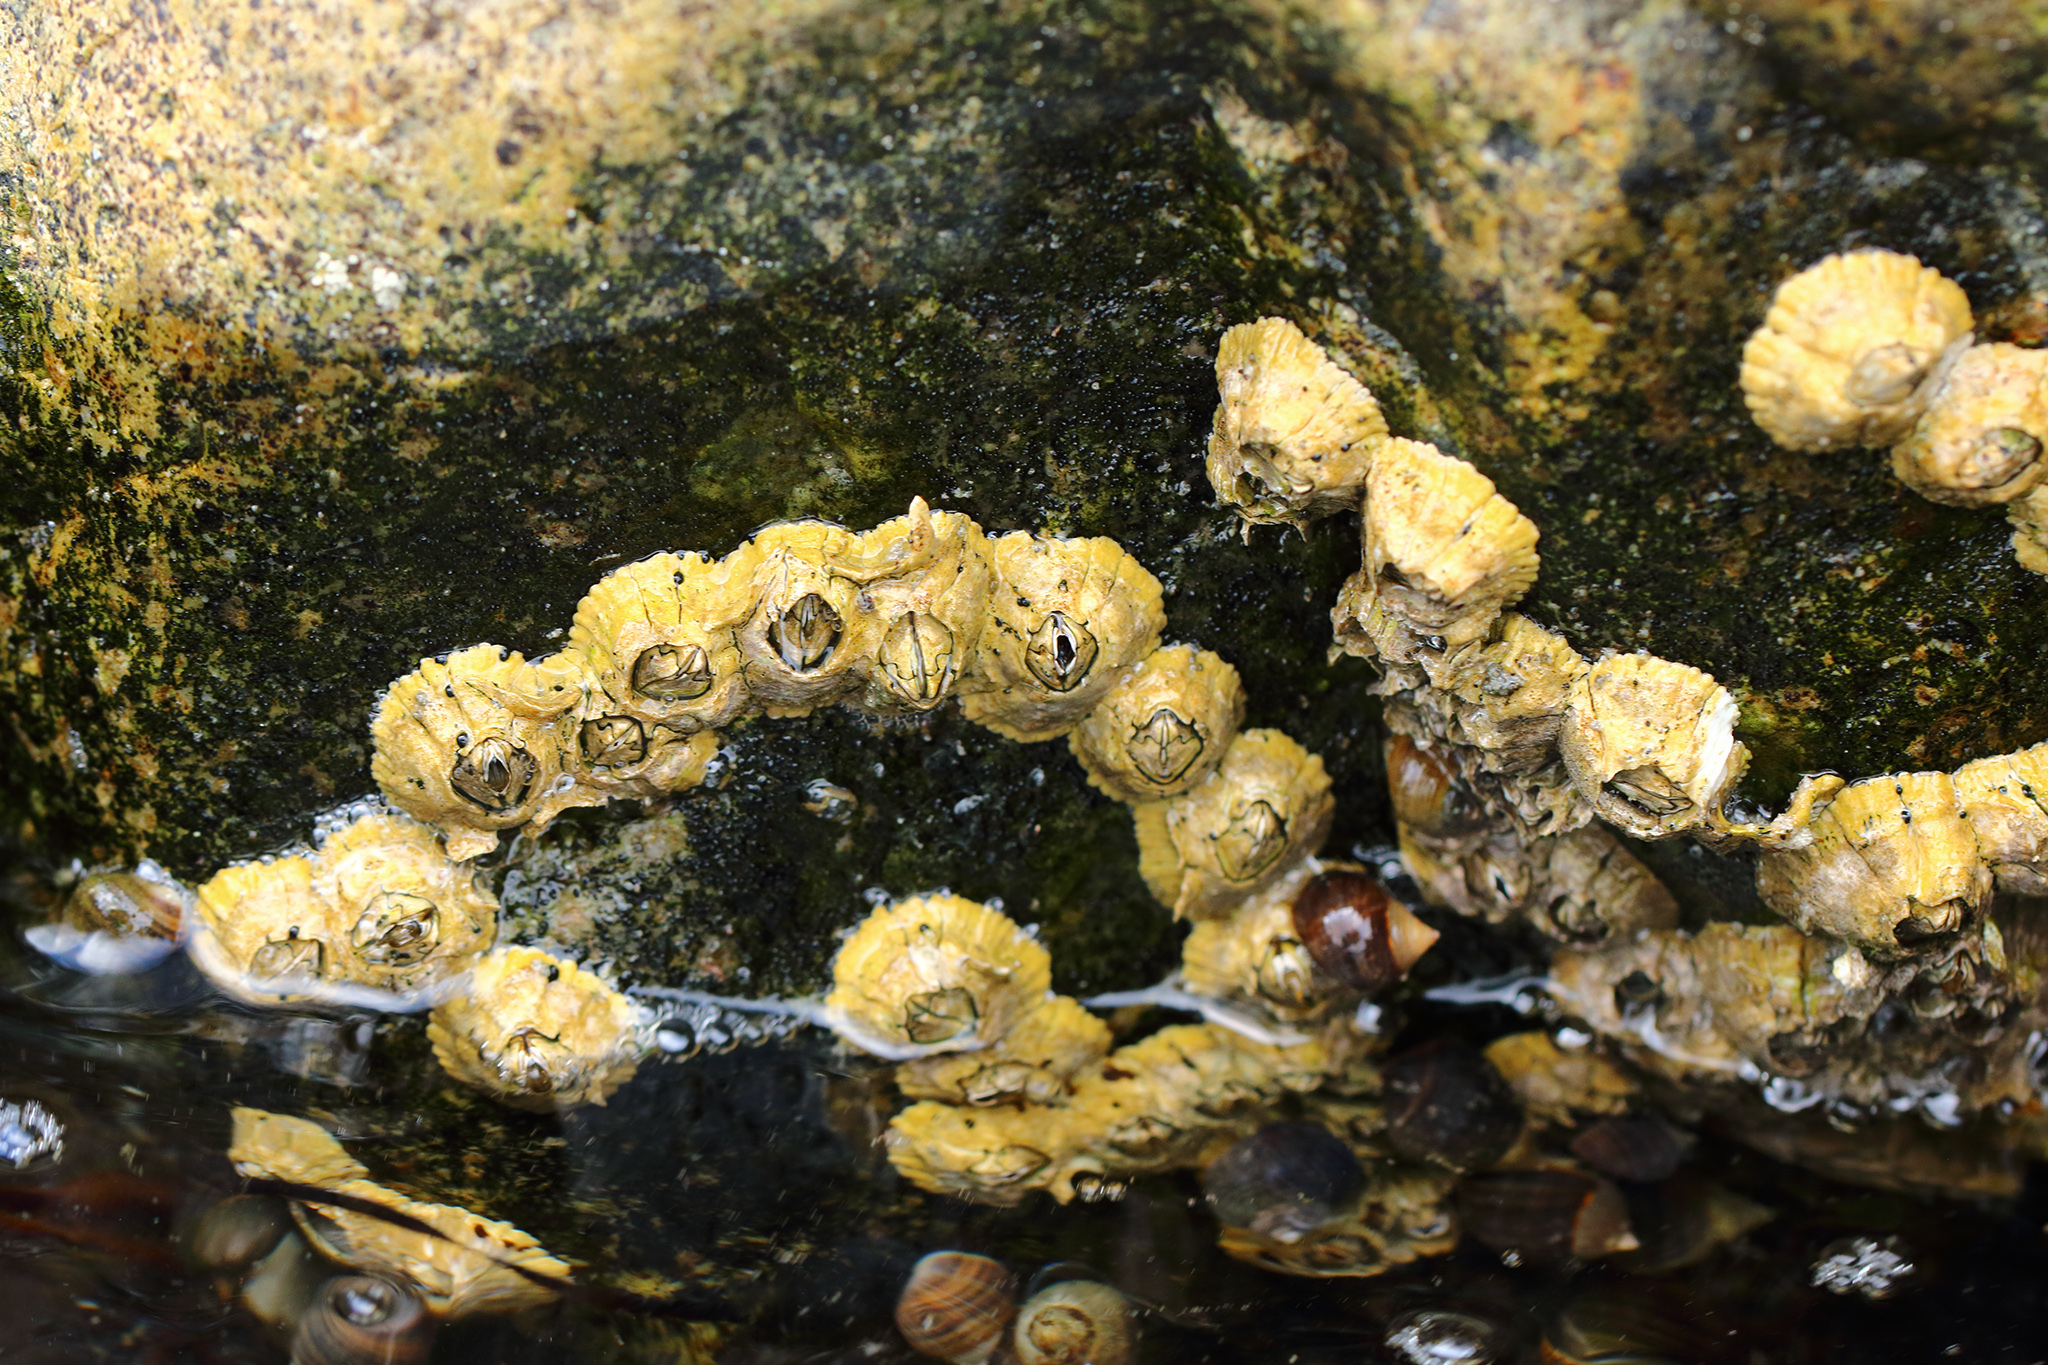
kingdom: Animalia
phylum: Arthropoda
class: Maxillopoda
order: Sessilia
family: Archaeobalanidae
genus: Semibalanus
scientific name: Semibalanus balanoides
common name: Acorn barnacle
